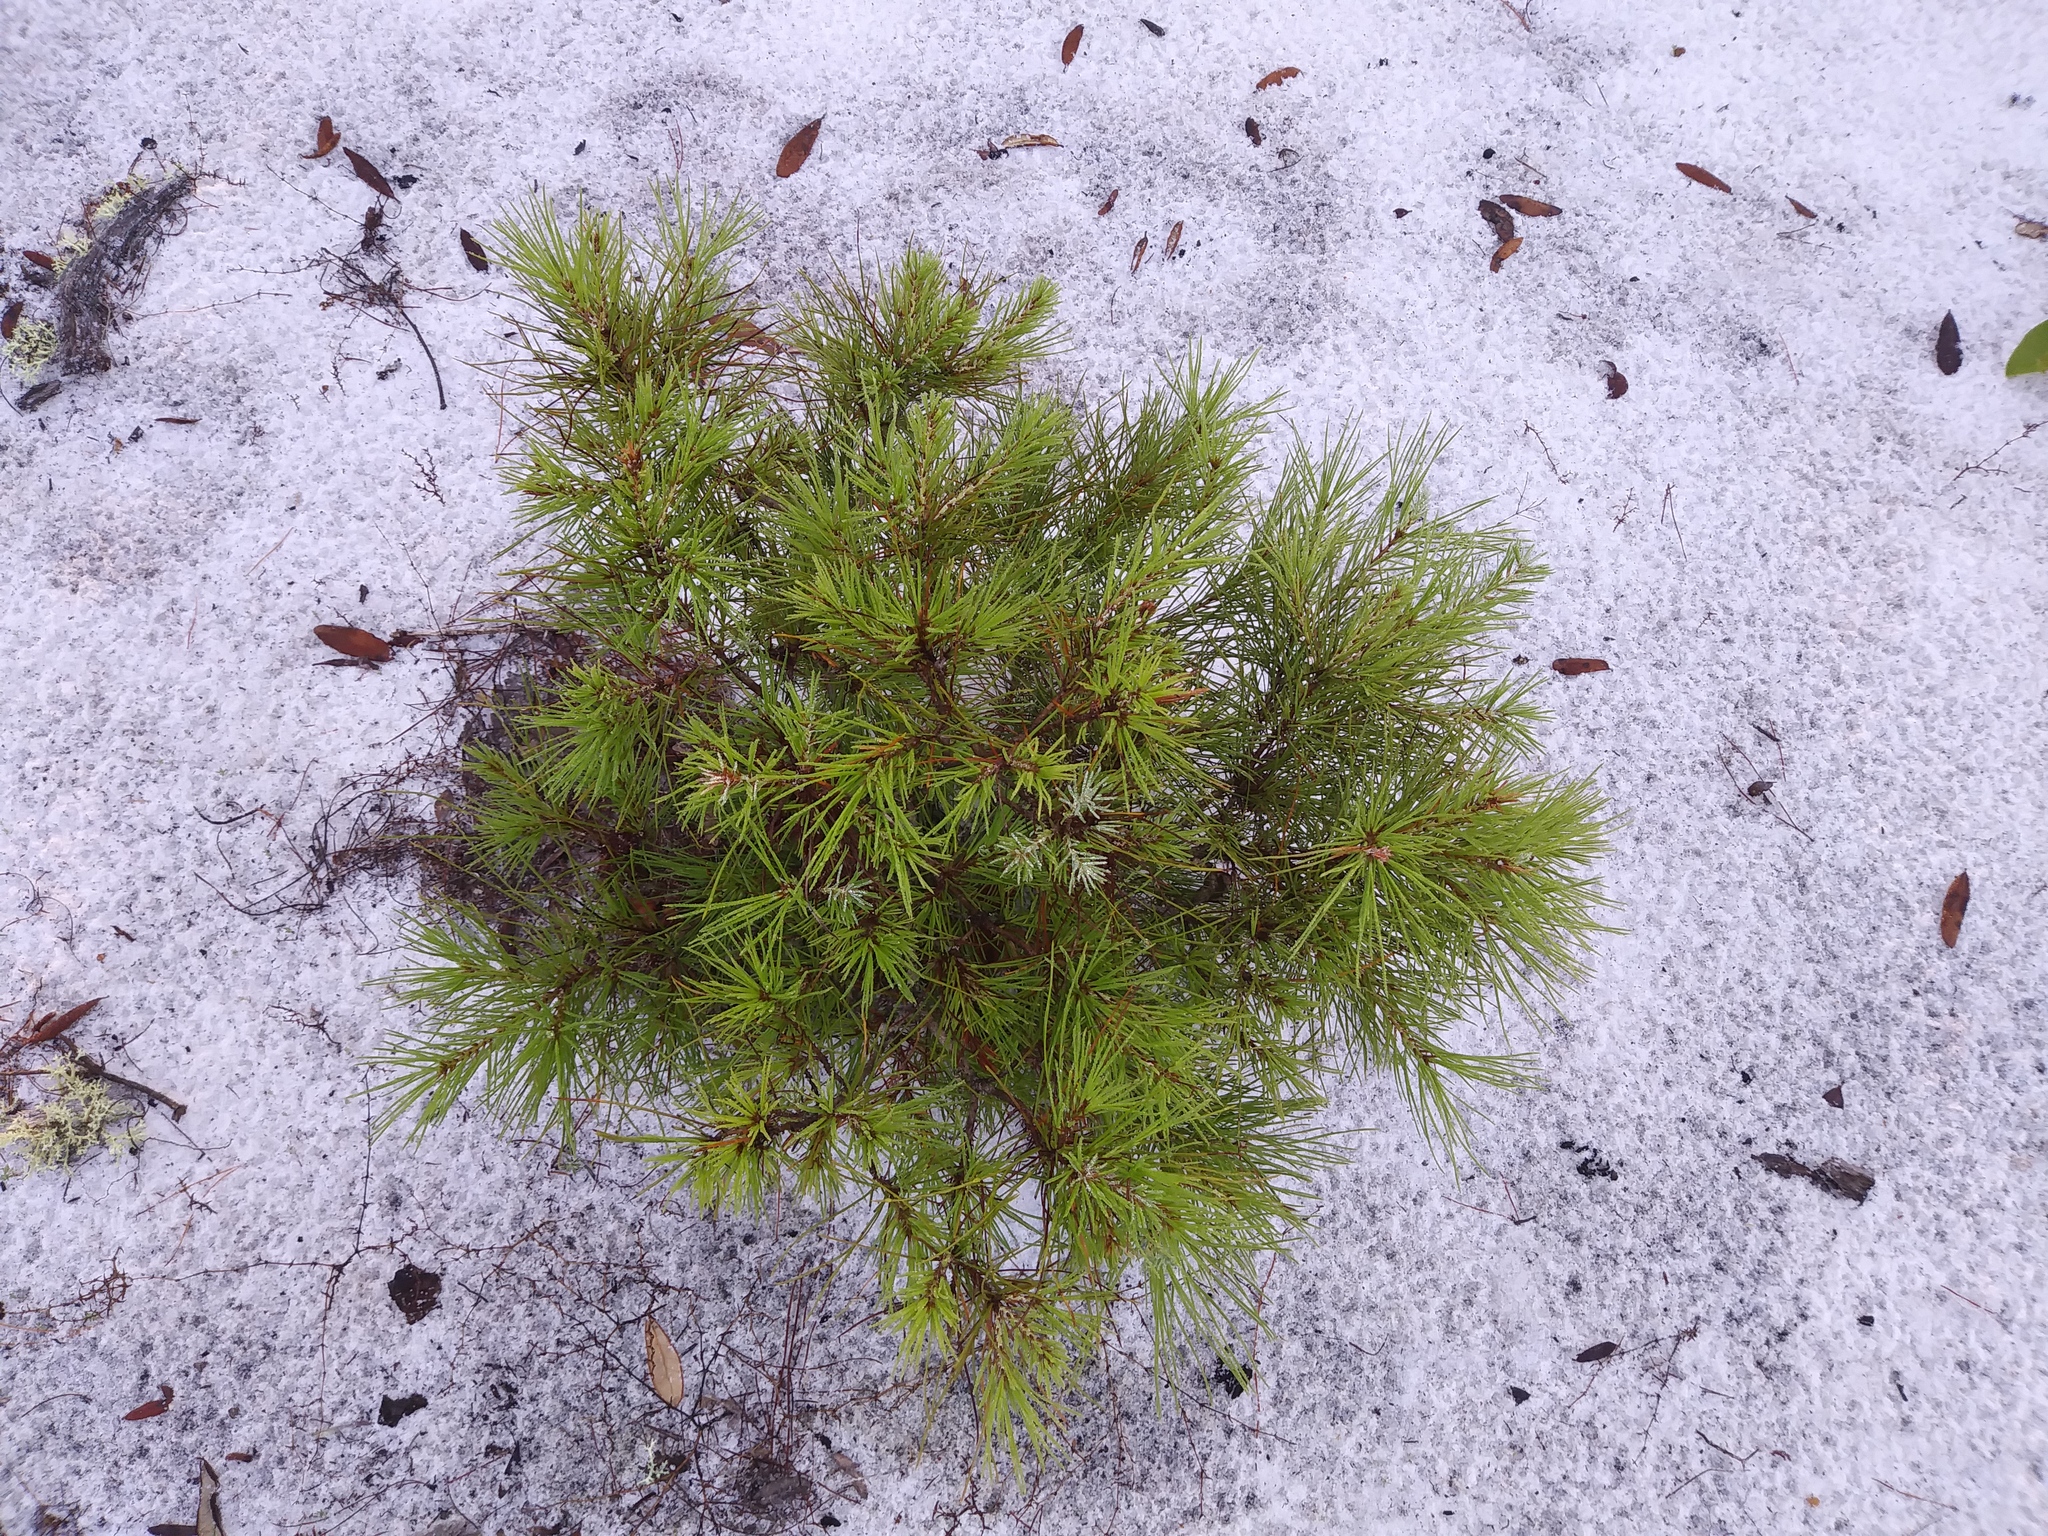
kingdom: Plantae
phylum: Tracheophyta
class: Pinopsida
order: Pinales
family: Pinaceae
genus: Pinus
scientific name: Pinus clausa
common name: Sand pine
